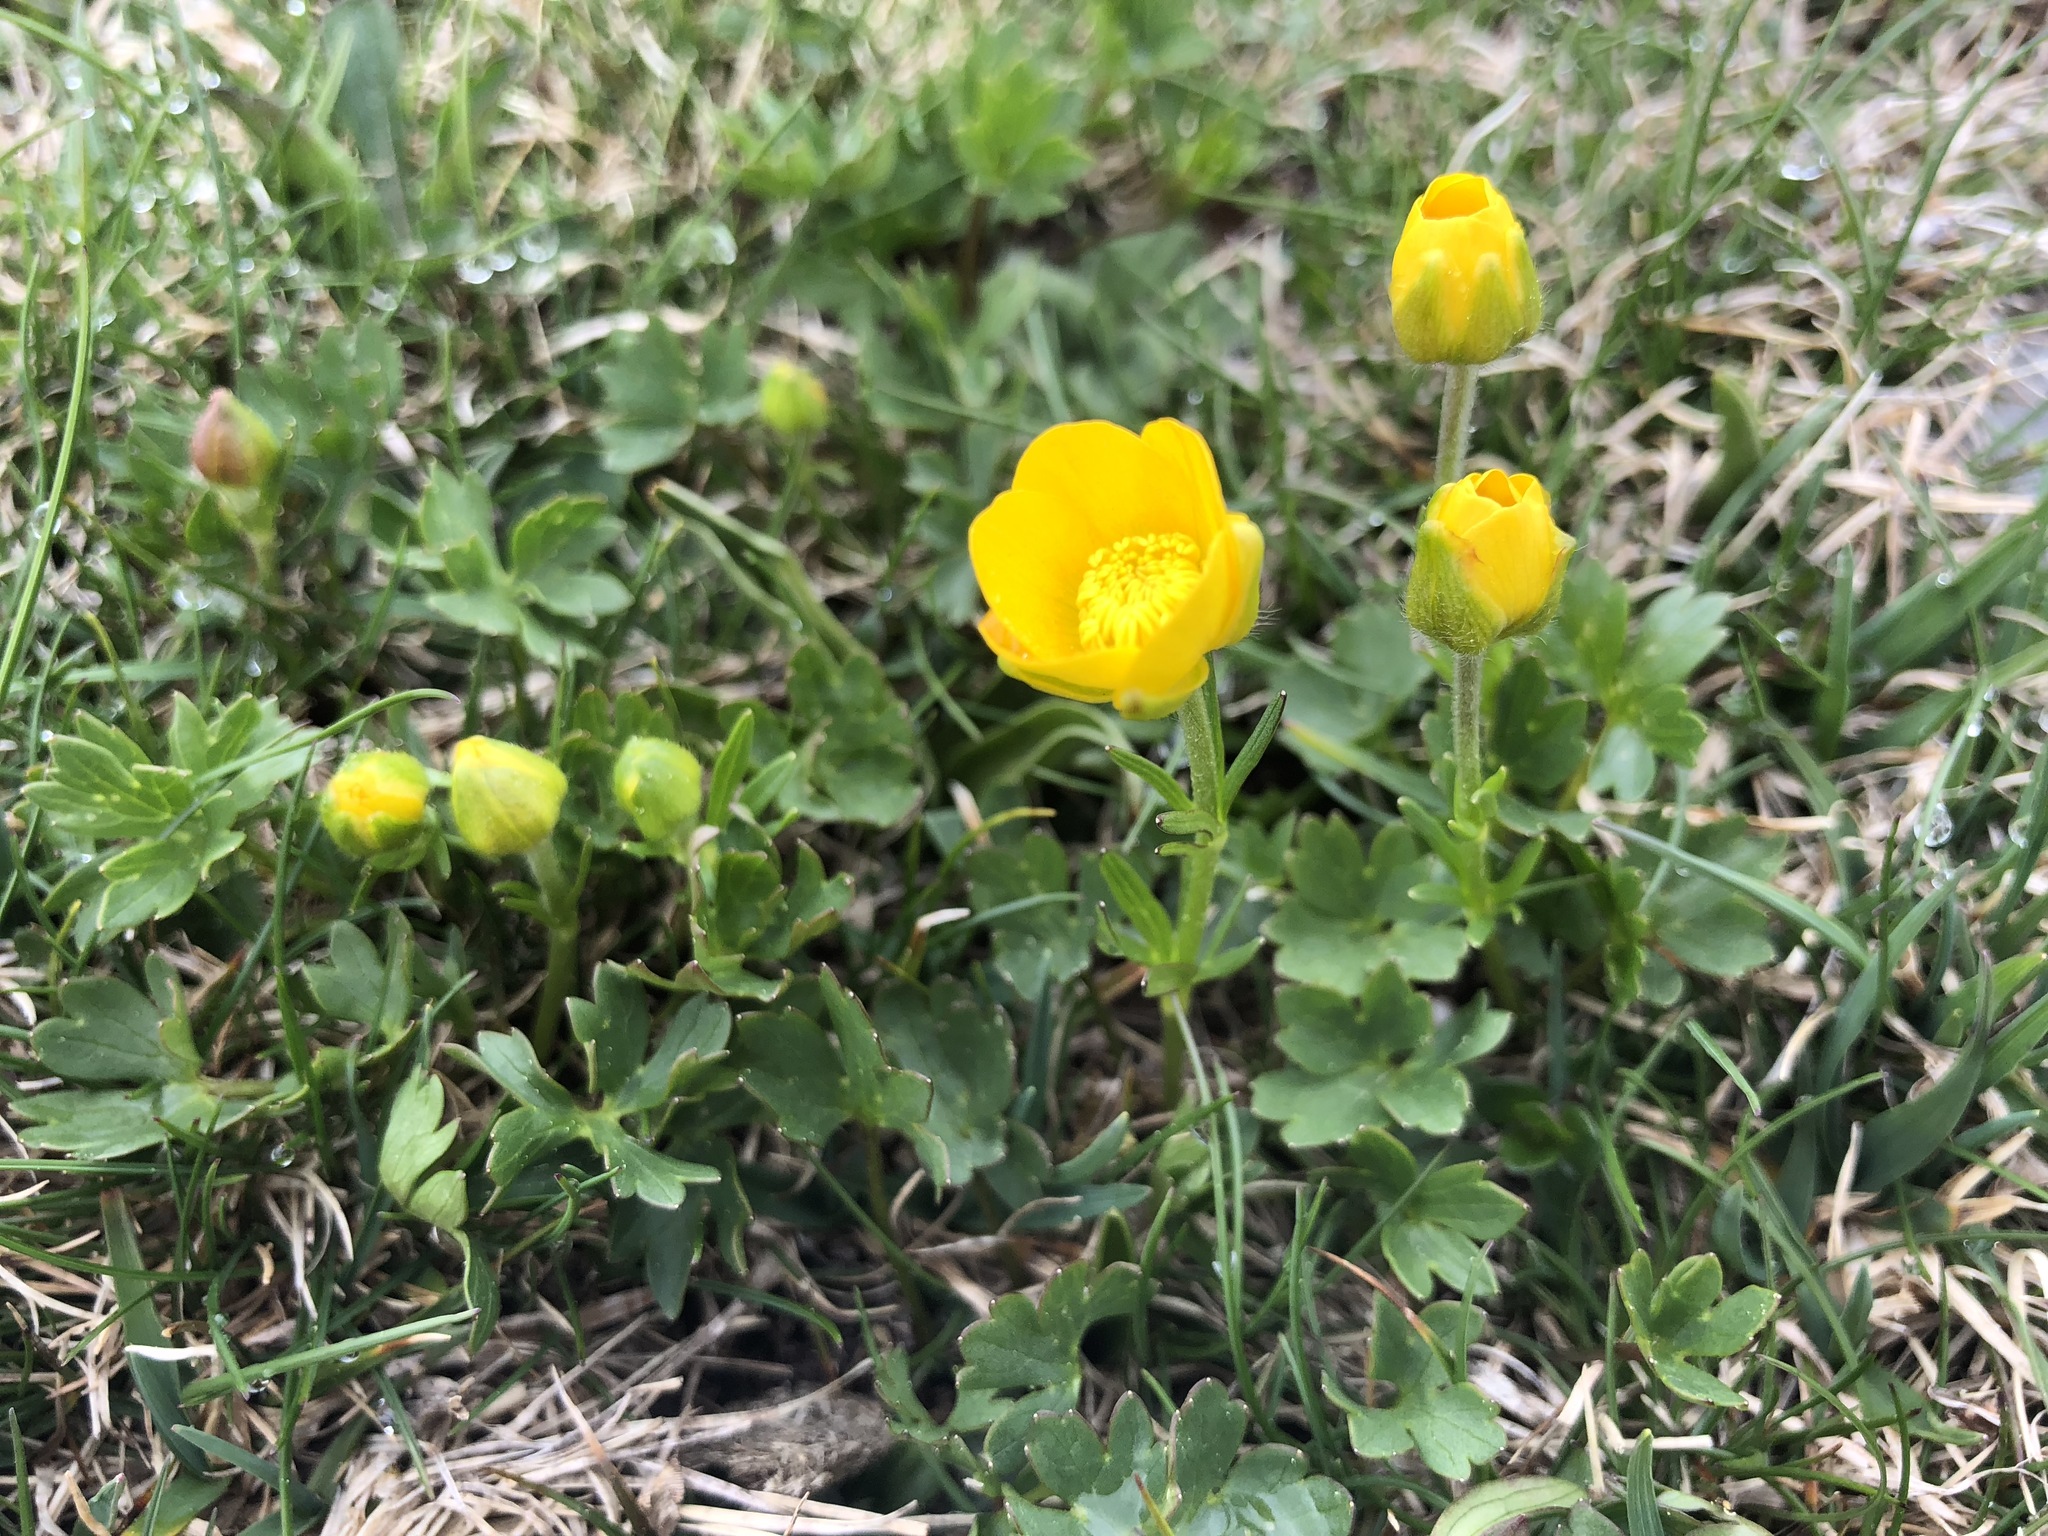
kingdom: Plantae
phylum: Tracheophyta
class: Magnoliopsida
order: Ranunculales
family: Ranunculaceae
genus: Ranunculus
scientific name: Ranunculus carinthiacus
